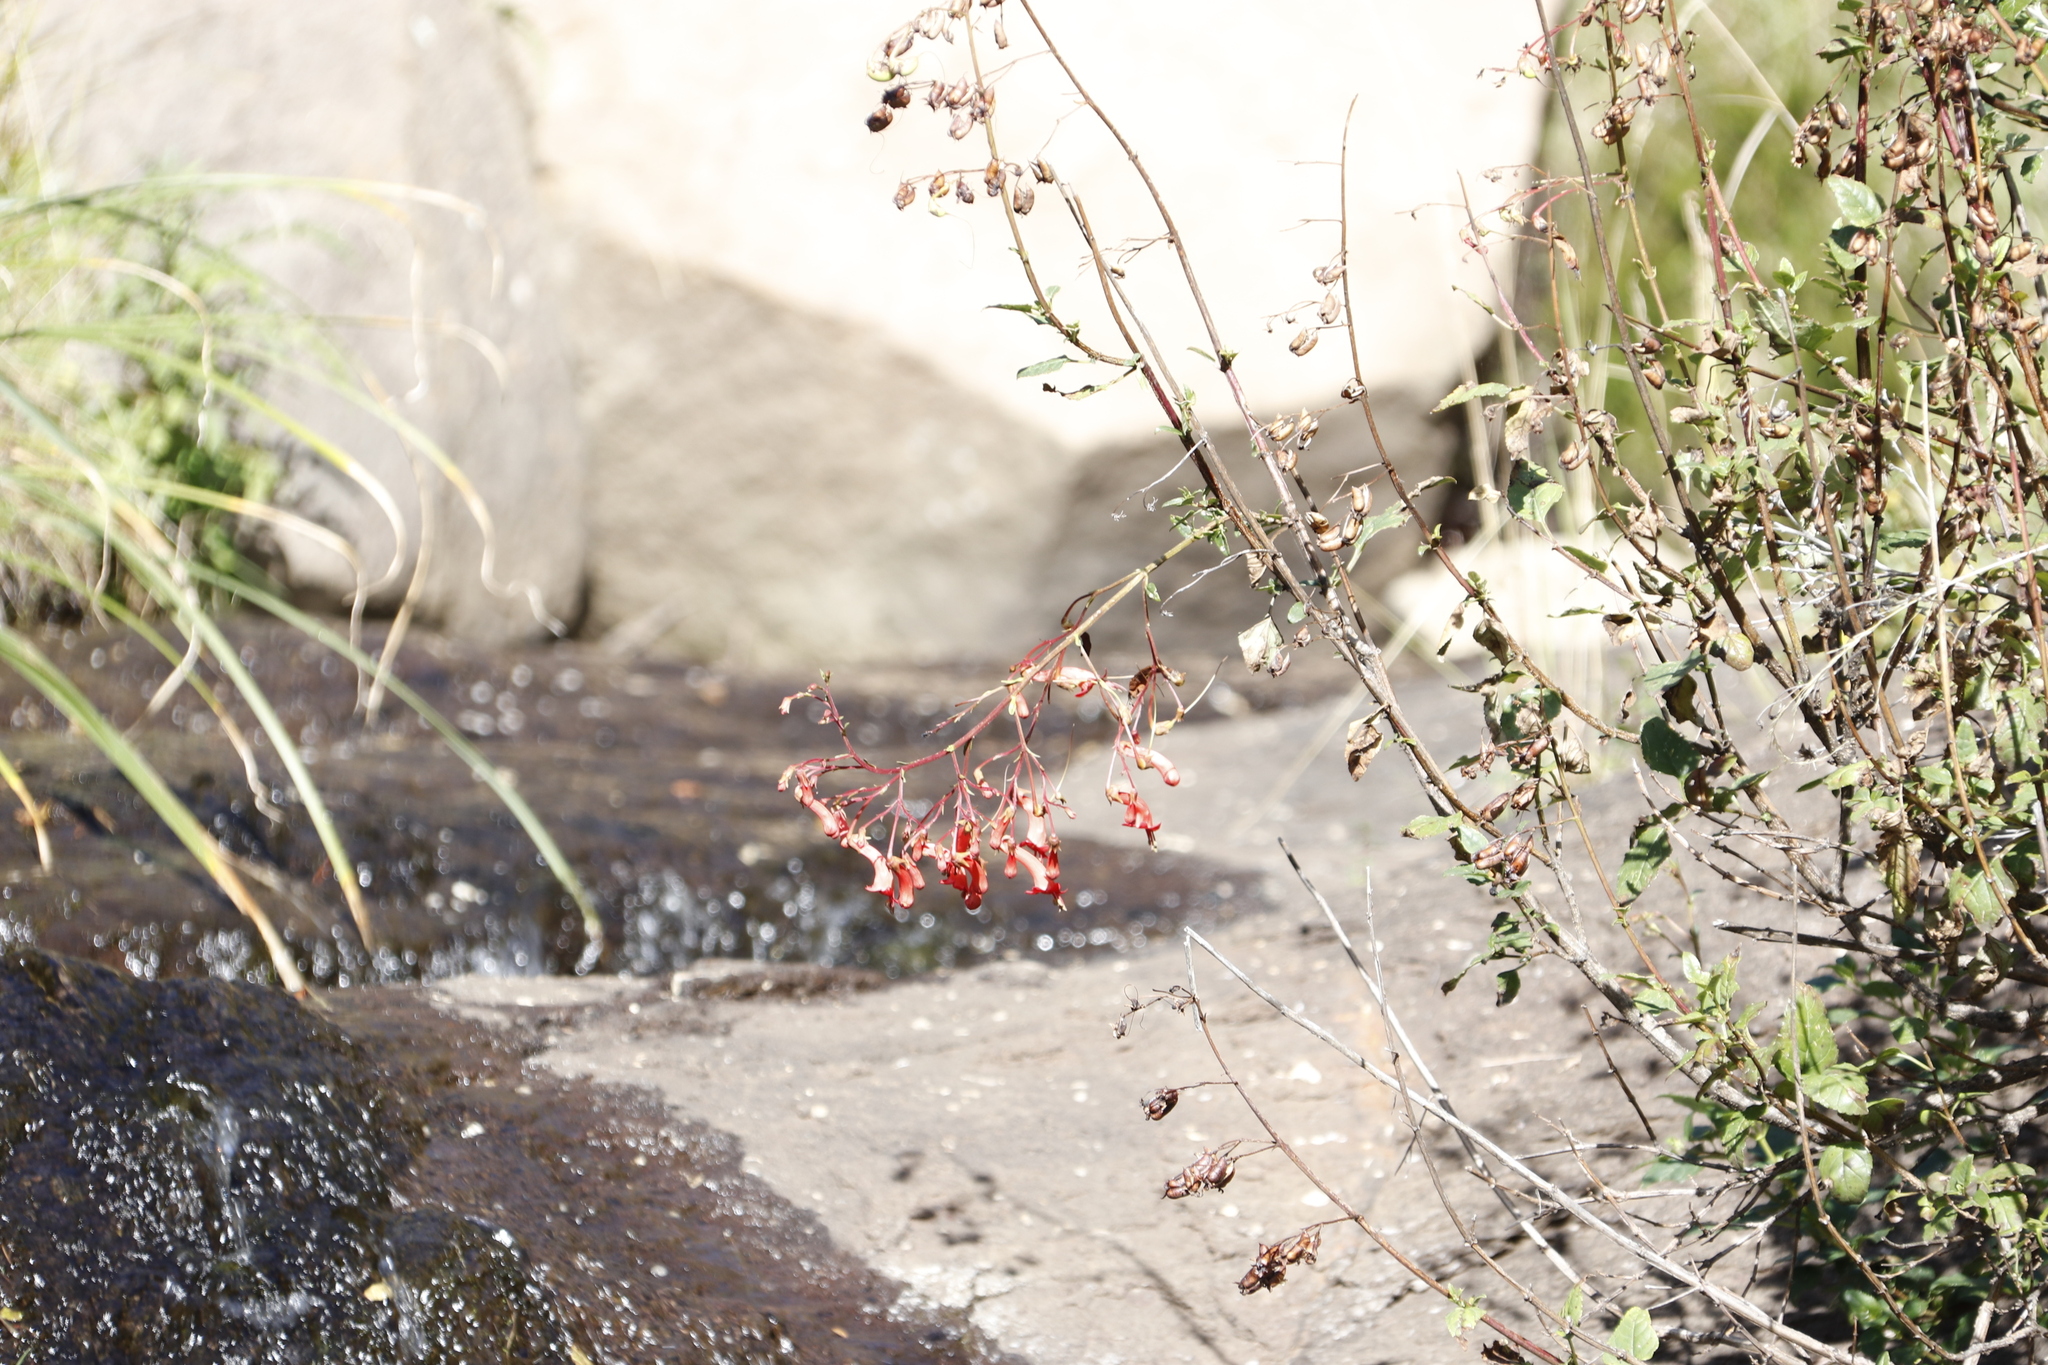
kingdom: Plantae
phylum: Tracheophyta
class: Magnoliopsida
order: Lamiales
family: Scrophulariaceae
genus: Phygelius
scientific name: Phygelius capensis
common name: Cape figwort
